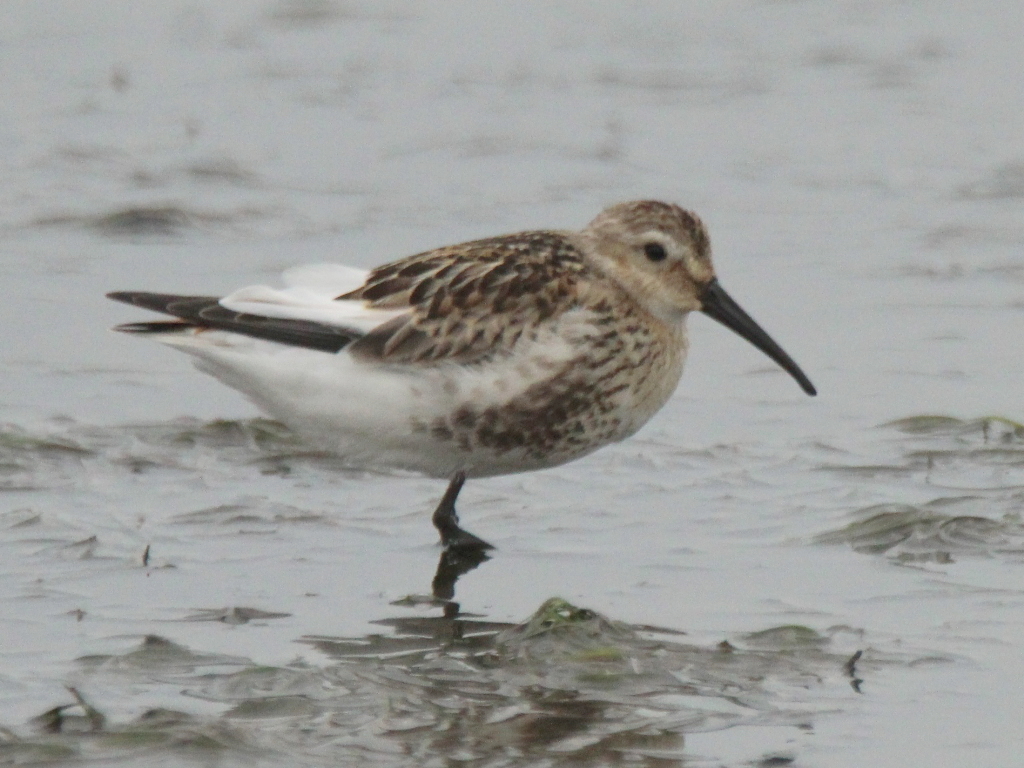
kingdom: Animalia
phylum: Chordata
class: Aves
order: Charadriiformes
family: Scolopacidae
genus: Calidris
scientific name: Calidris alpina
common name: Dunlin
